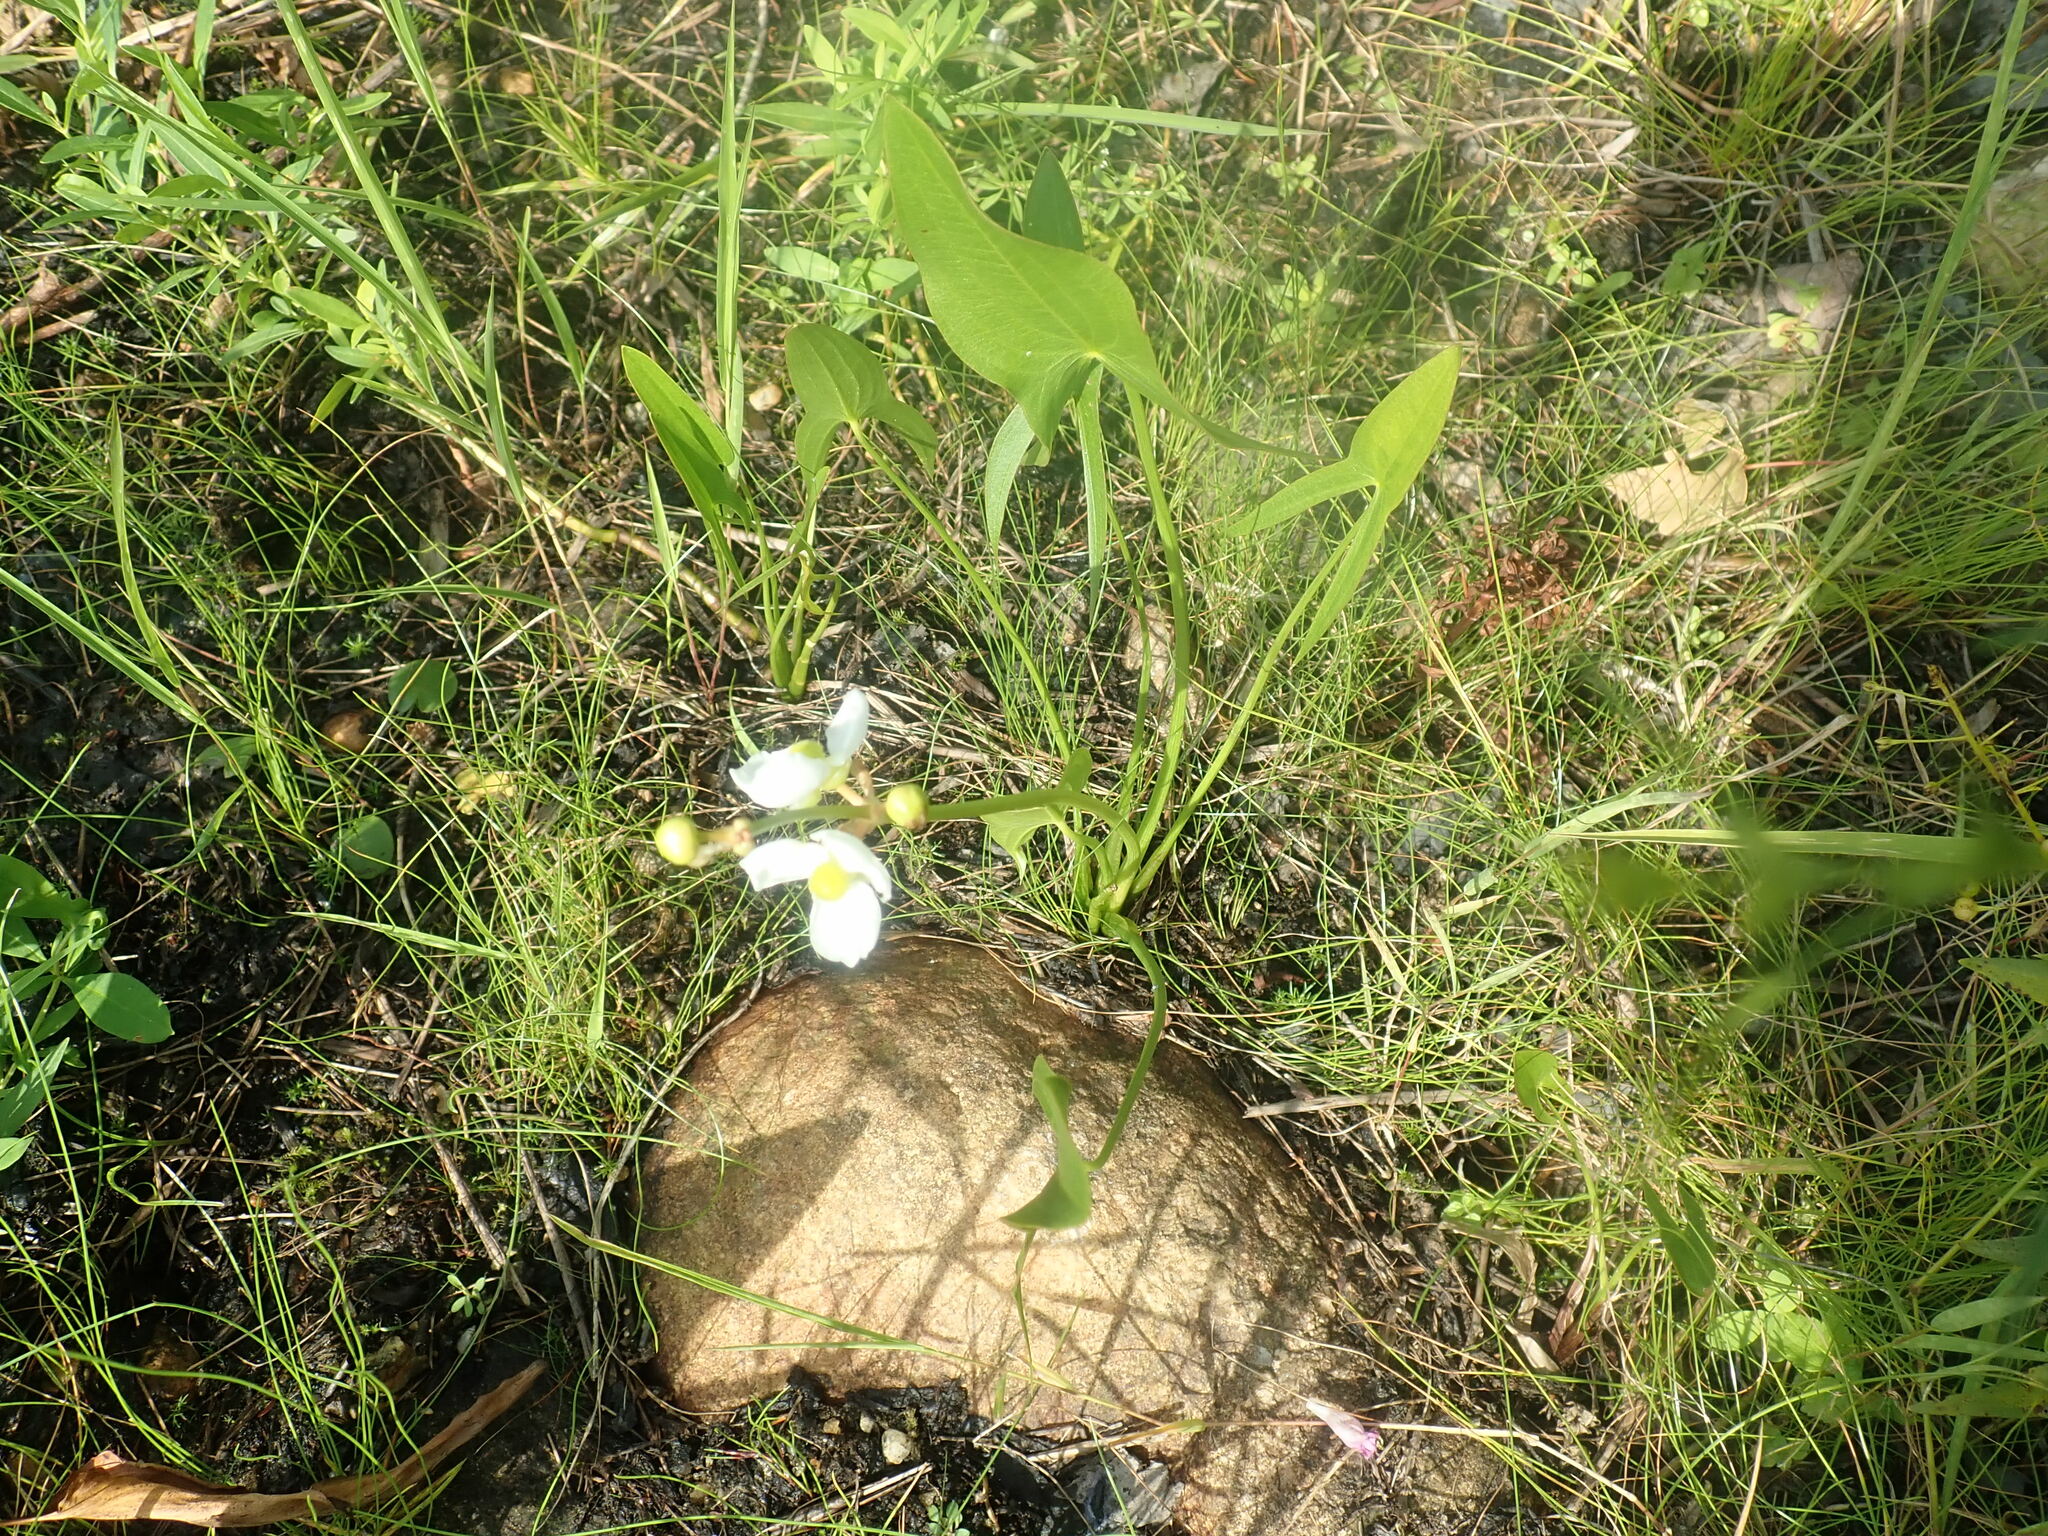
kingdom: Plantae
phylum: Tracheophyta
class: Liliopsida
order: Alismatales
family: Alismataceae
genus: Sagittaria
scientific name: Sagittaria latifolia
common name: Duck-potato
